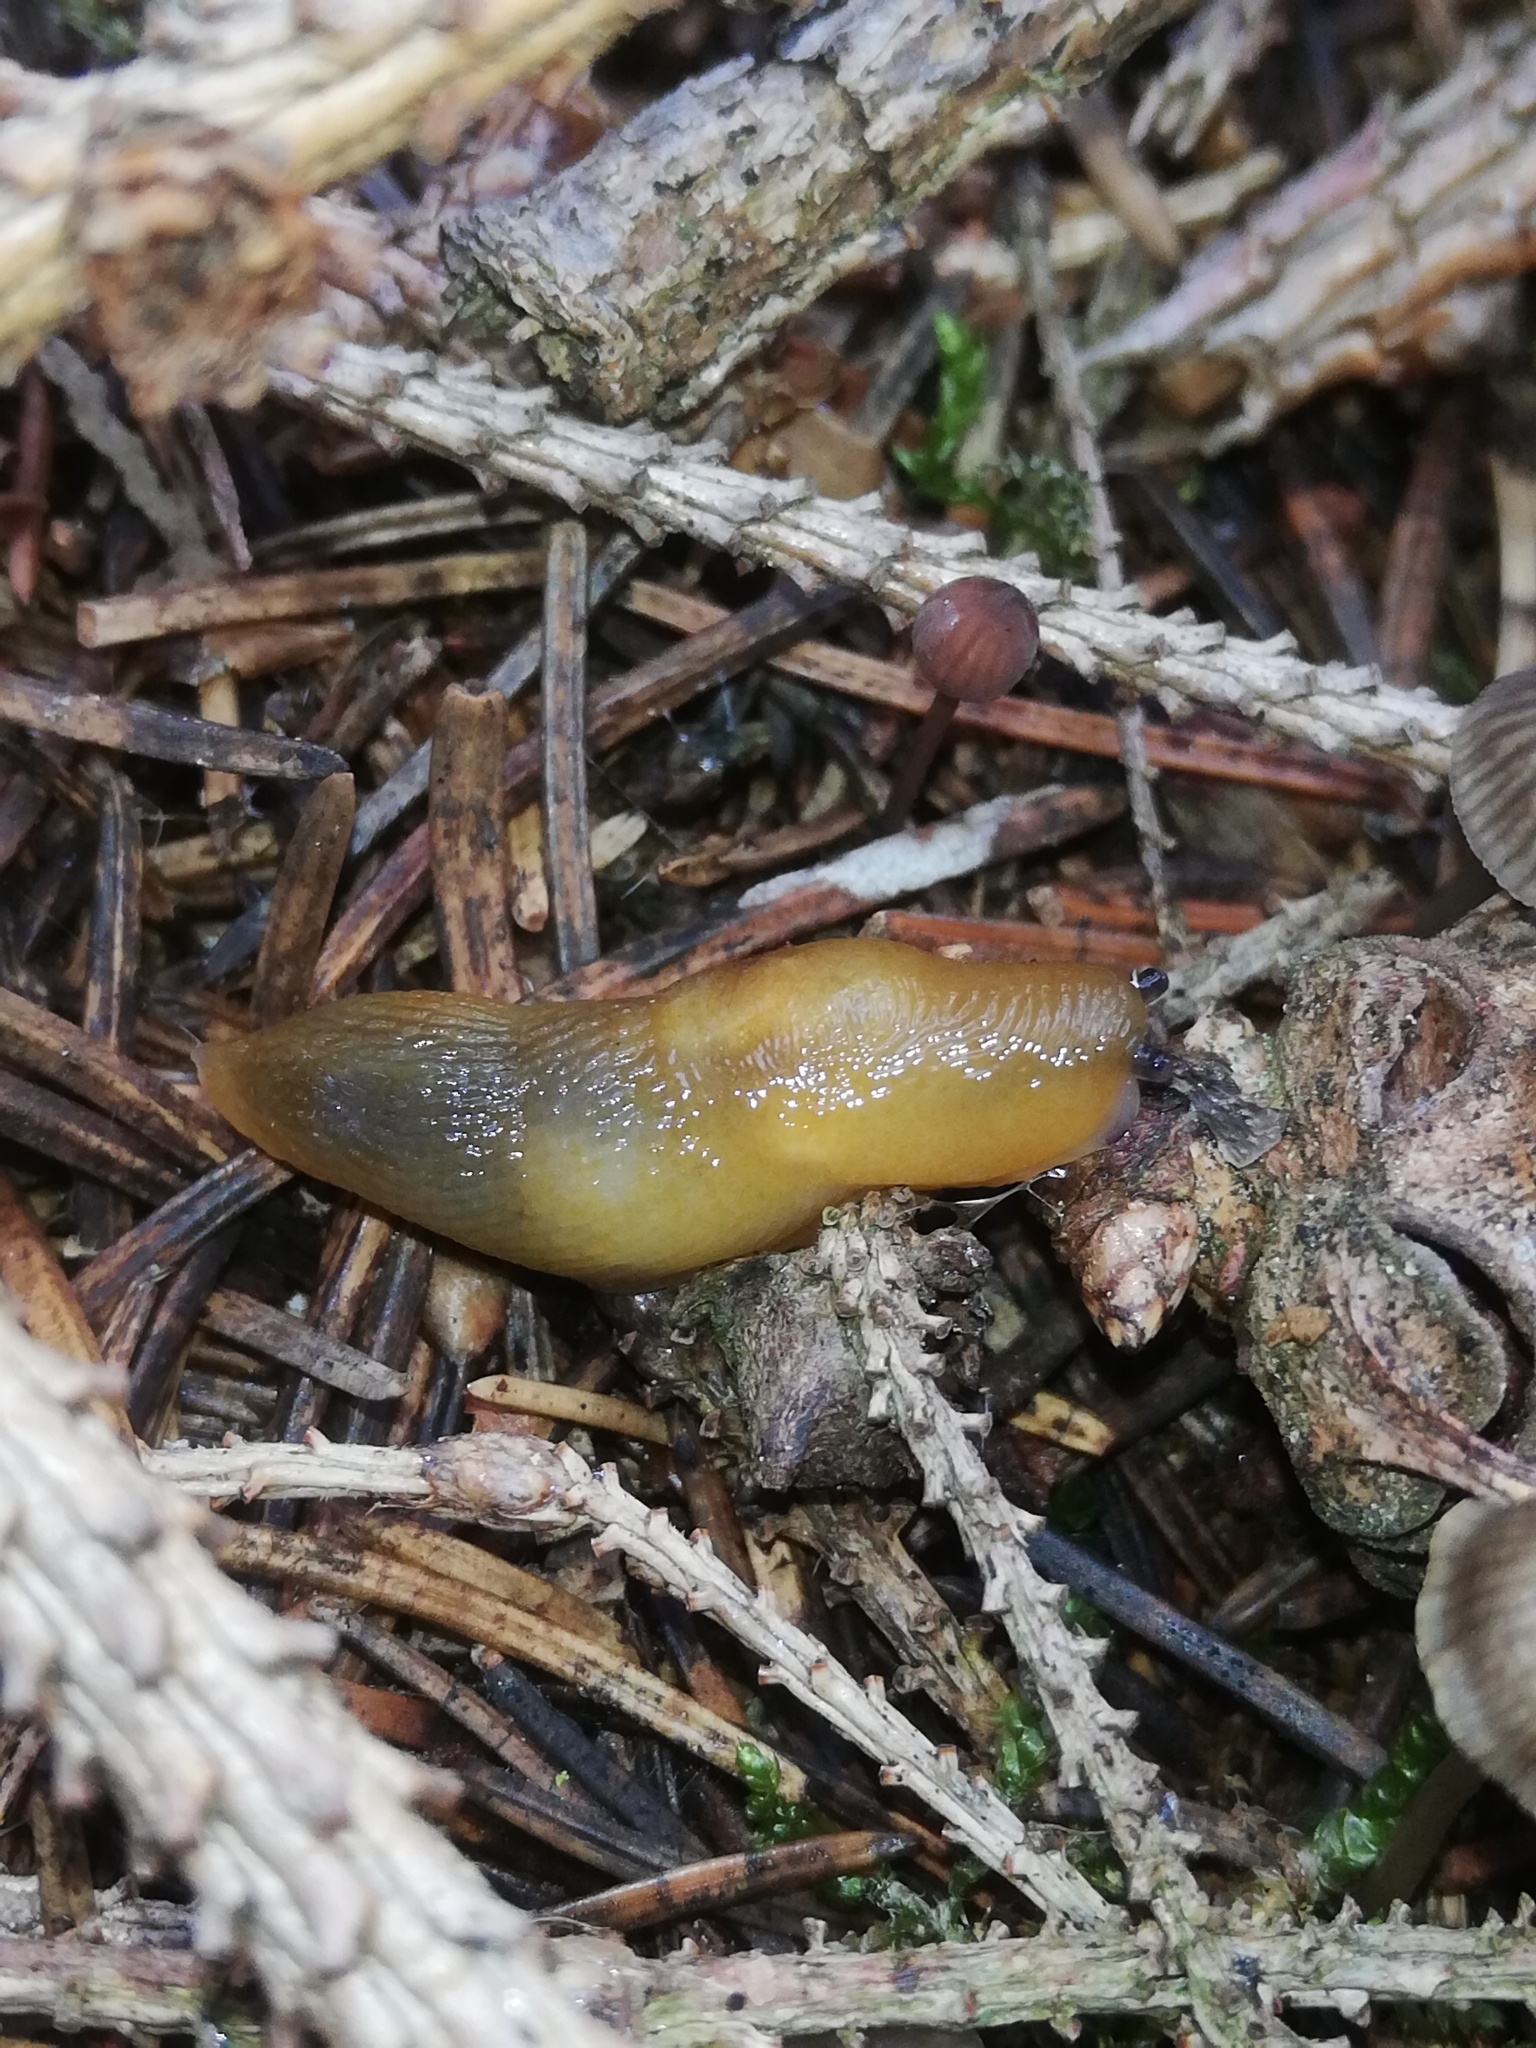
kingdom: Animalia
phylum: Mollusca
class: Gastropoda
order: Stylommatophora
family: Limacidae
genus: Malacolimax
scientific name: Malacolimax tenellus
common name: Lemon slug
